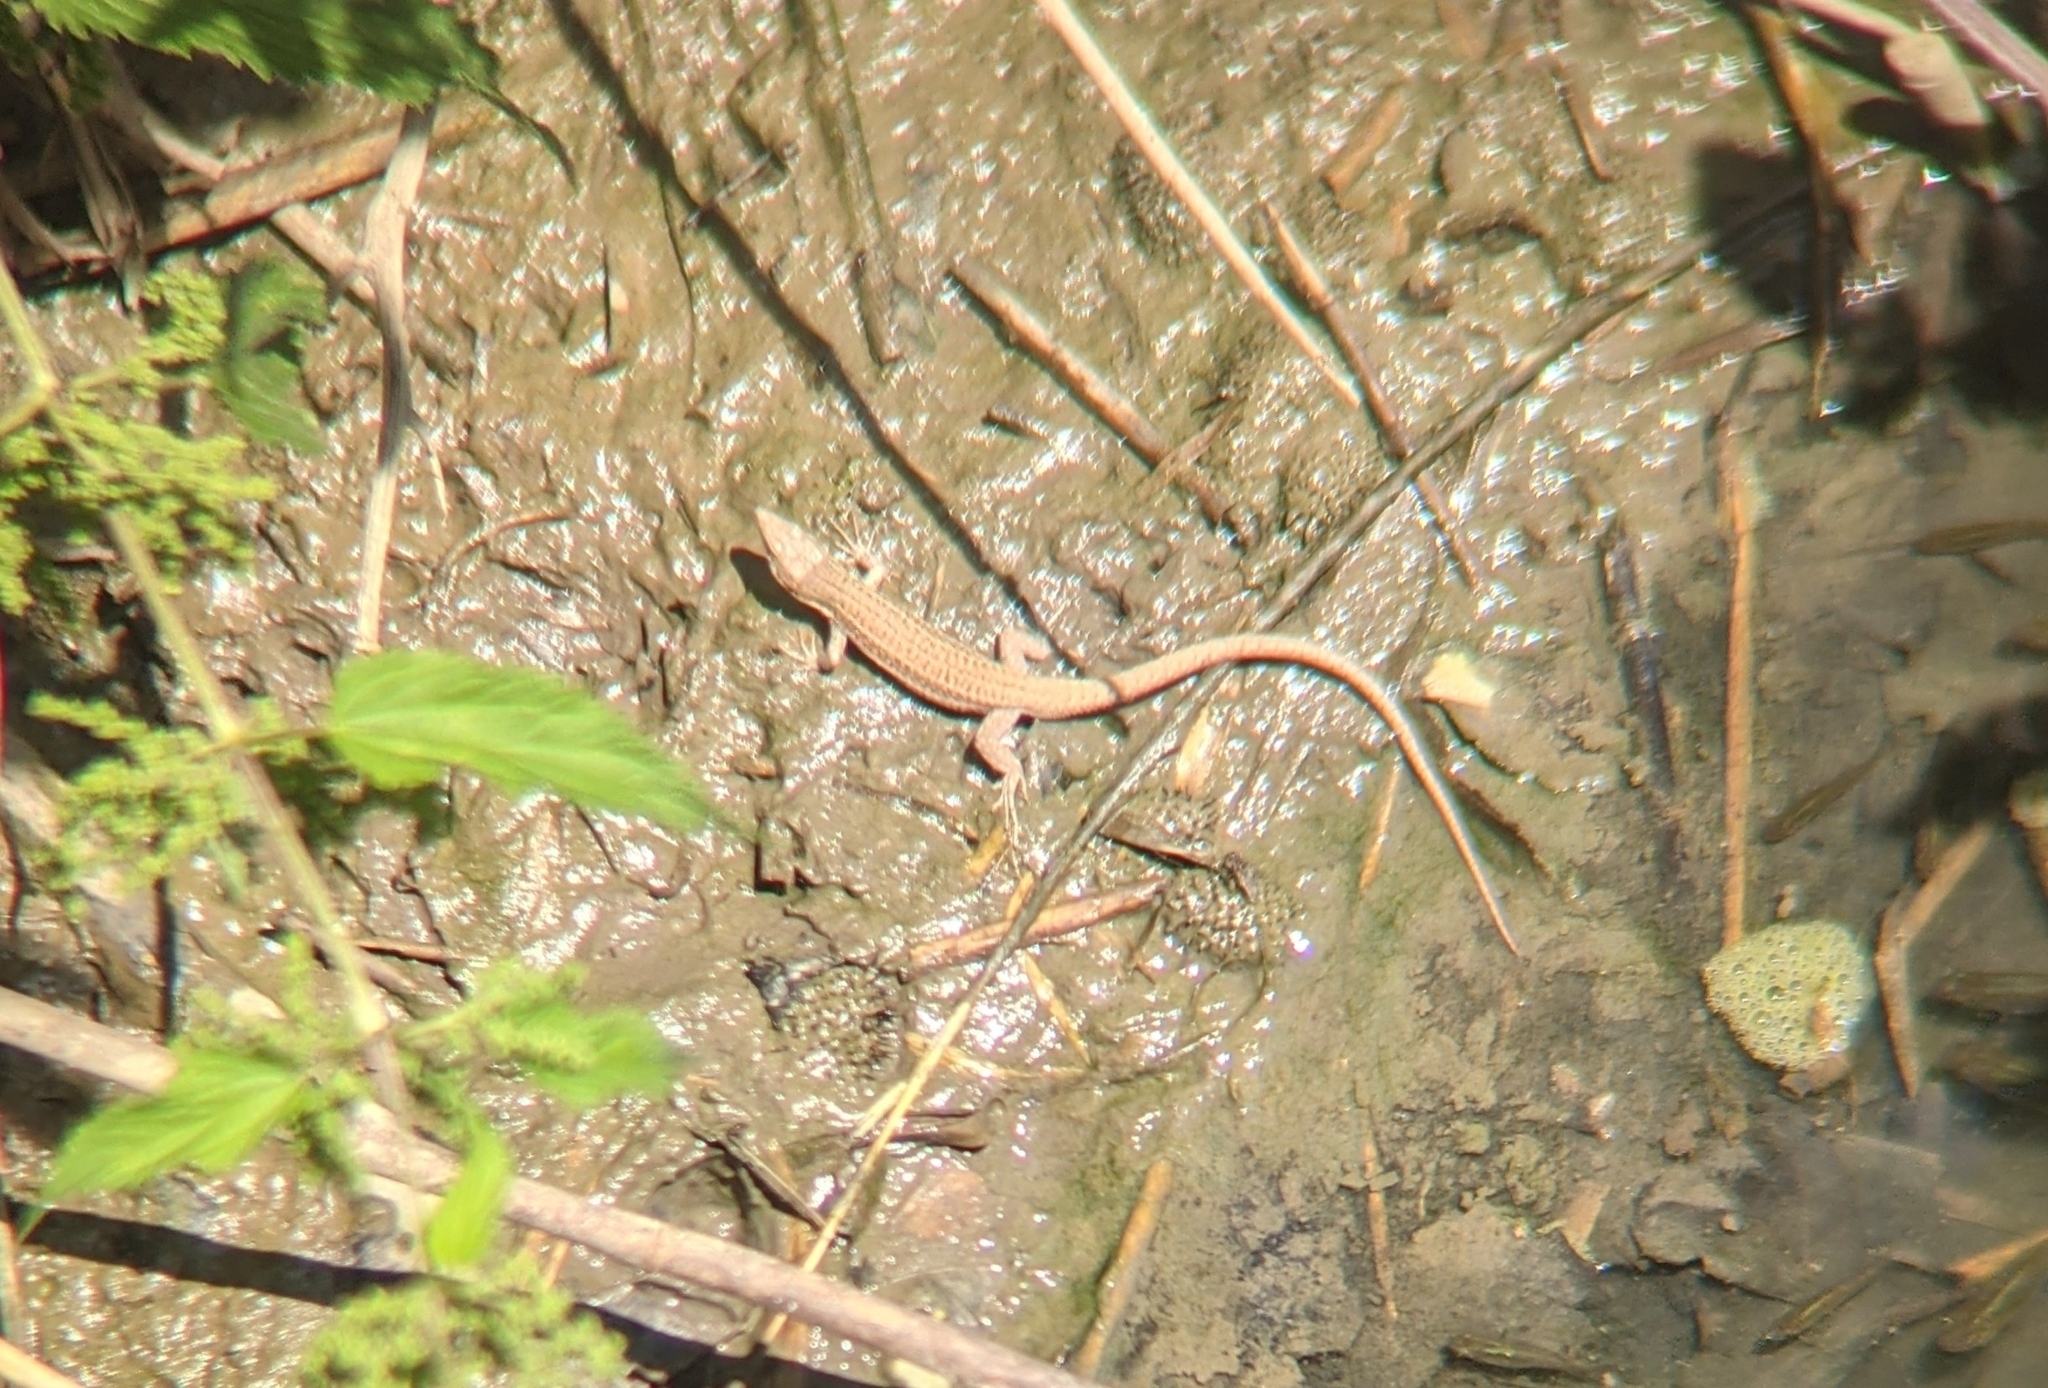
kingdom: Animalia
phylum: Chordata
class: Squamata
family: Lacertidae
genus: Podarcis
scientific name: Podarcis liolepis
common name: Catalonian wall lizard
